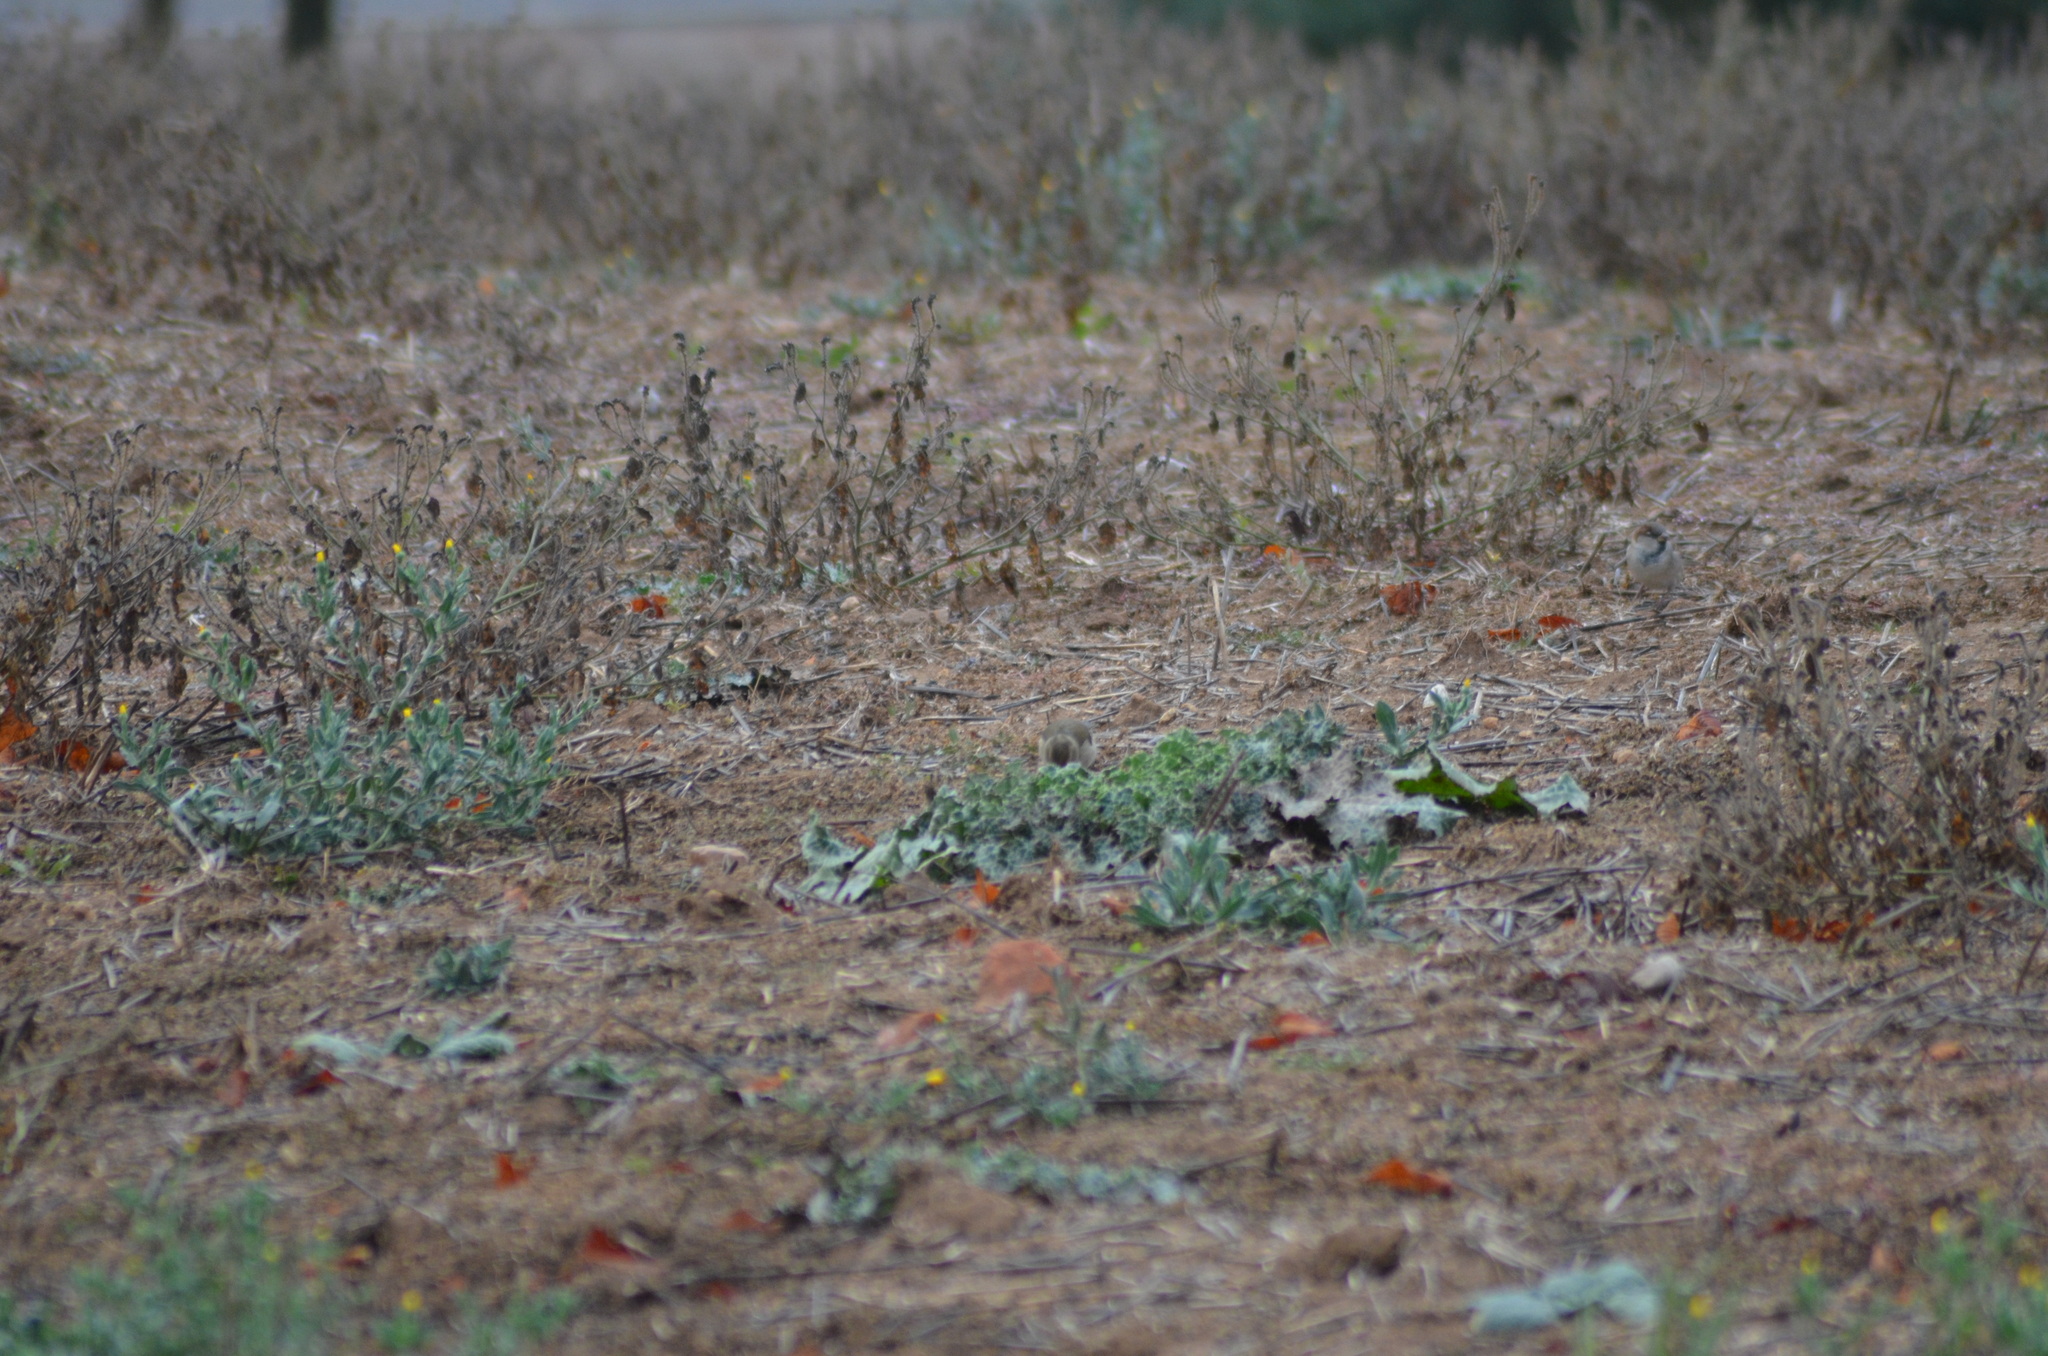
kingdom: Animalia
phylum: Chordata
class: Aves
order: Passeriformes
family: Fringillidae
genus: Fringilla
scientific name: Fringilla coelebs
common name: Common chaffinch
